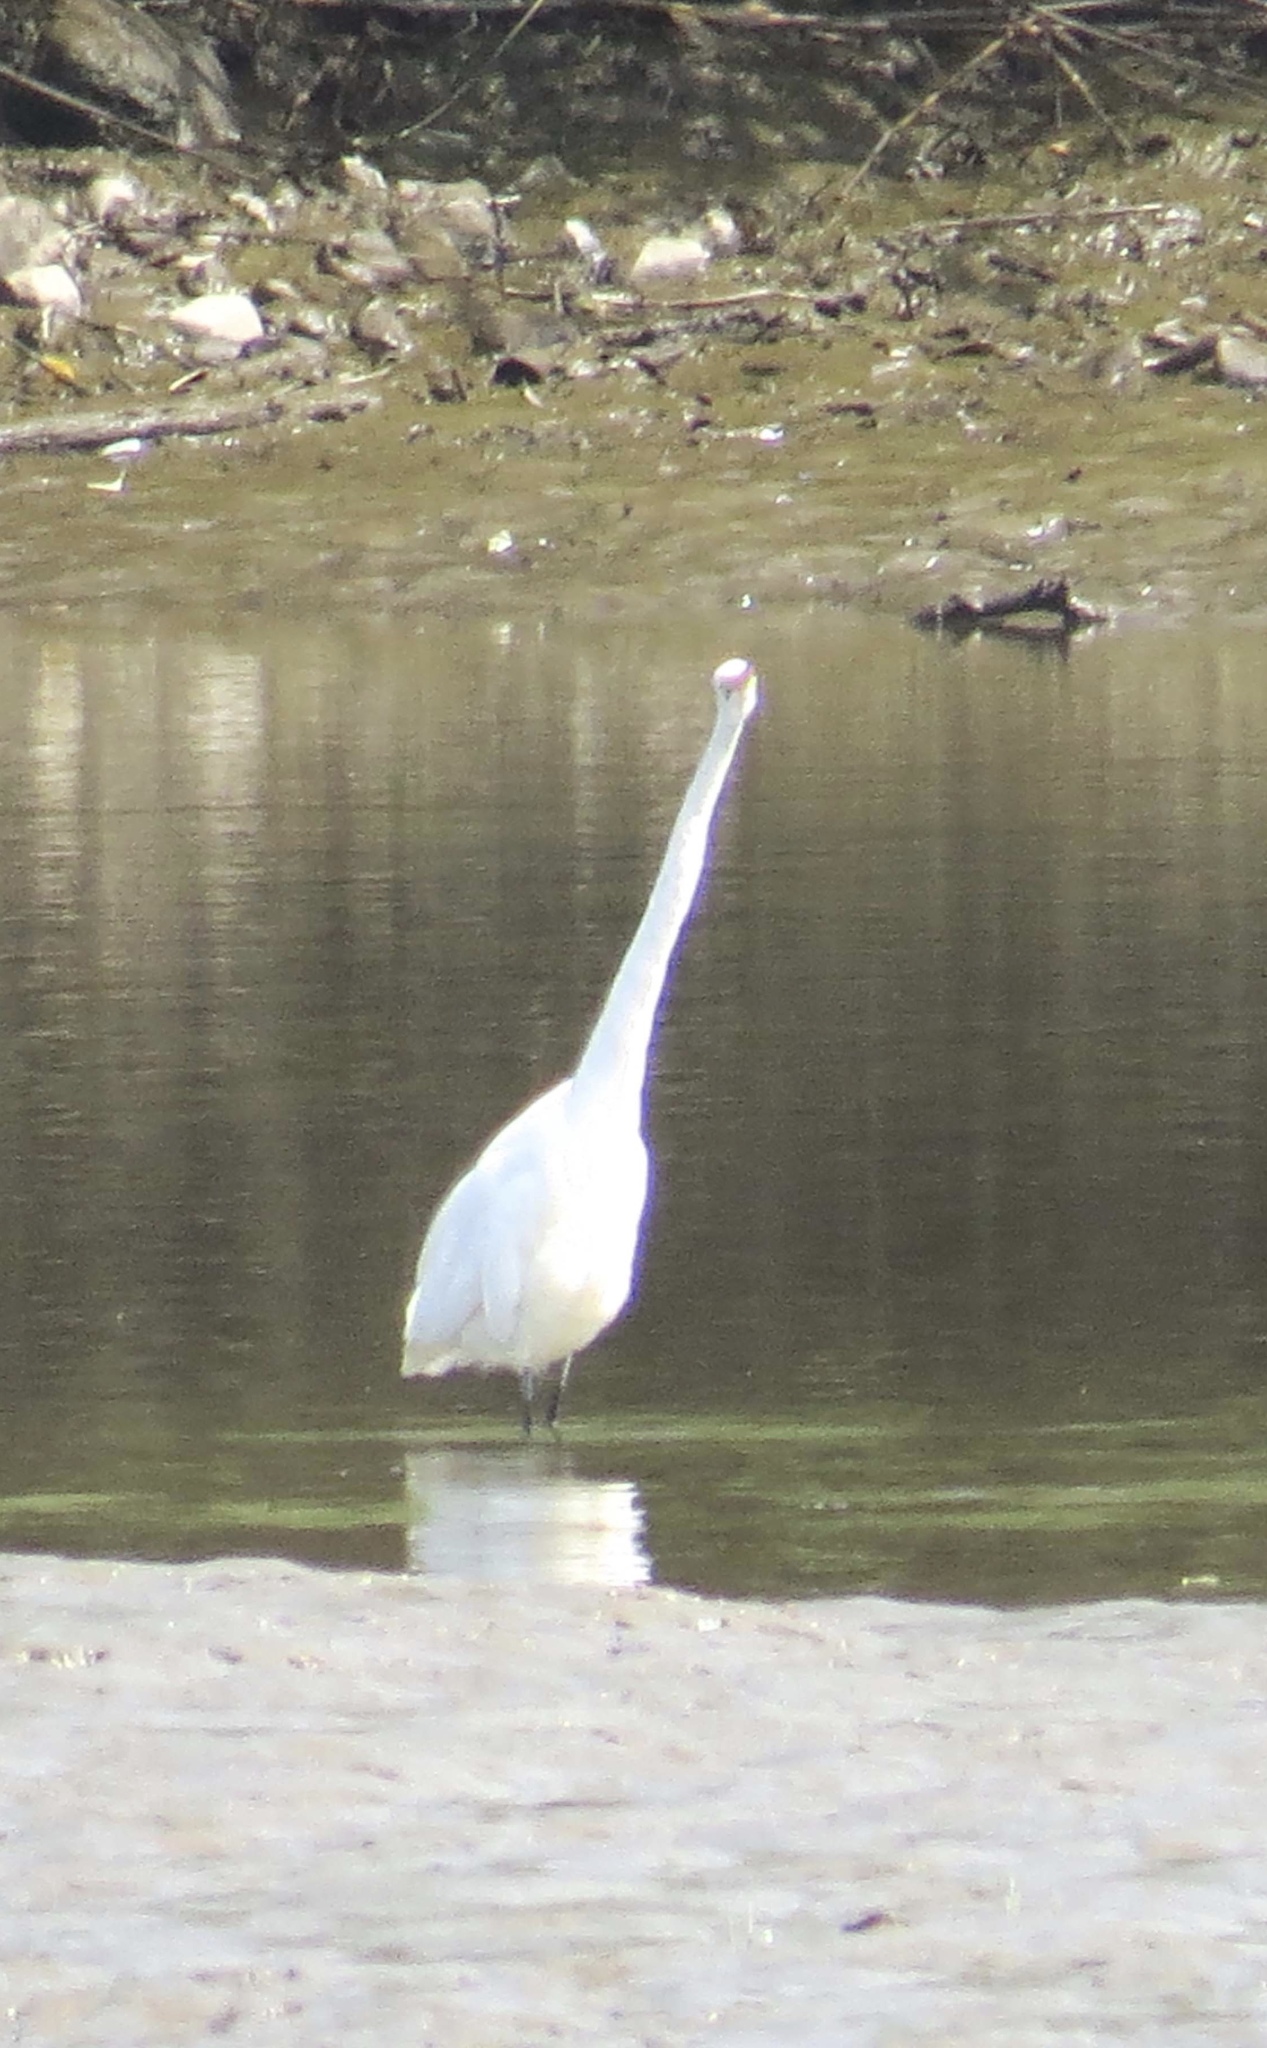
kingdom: Animalia
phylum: Chordata
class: Aves
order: Pelecaniformes
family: Ardeidae
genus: Ardea
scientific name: Ardea alba
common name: Great egret
